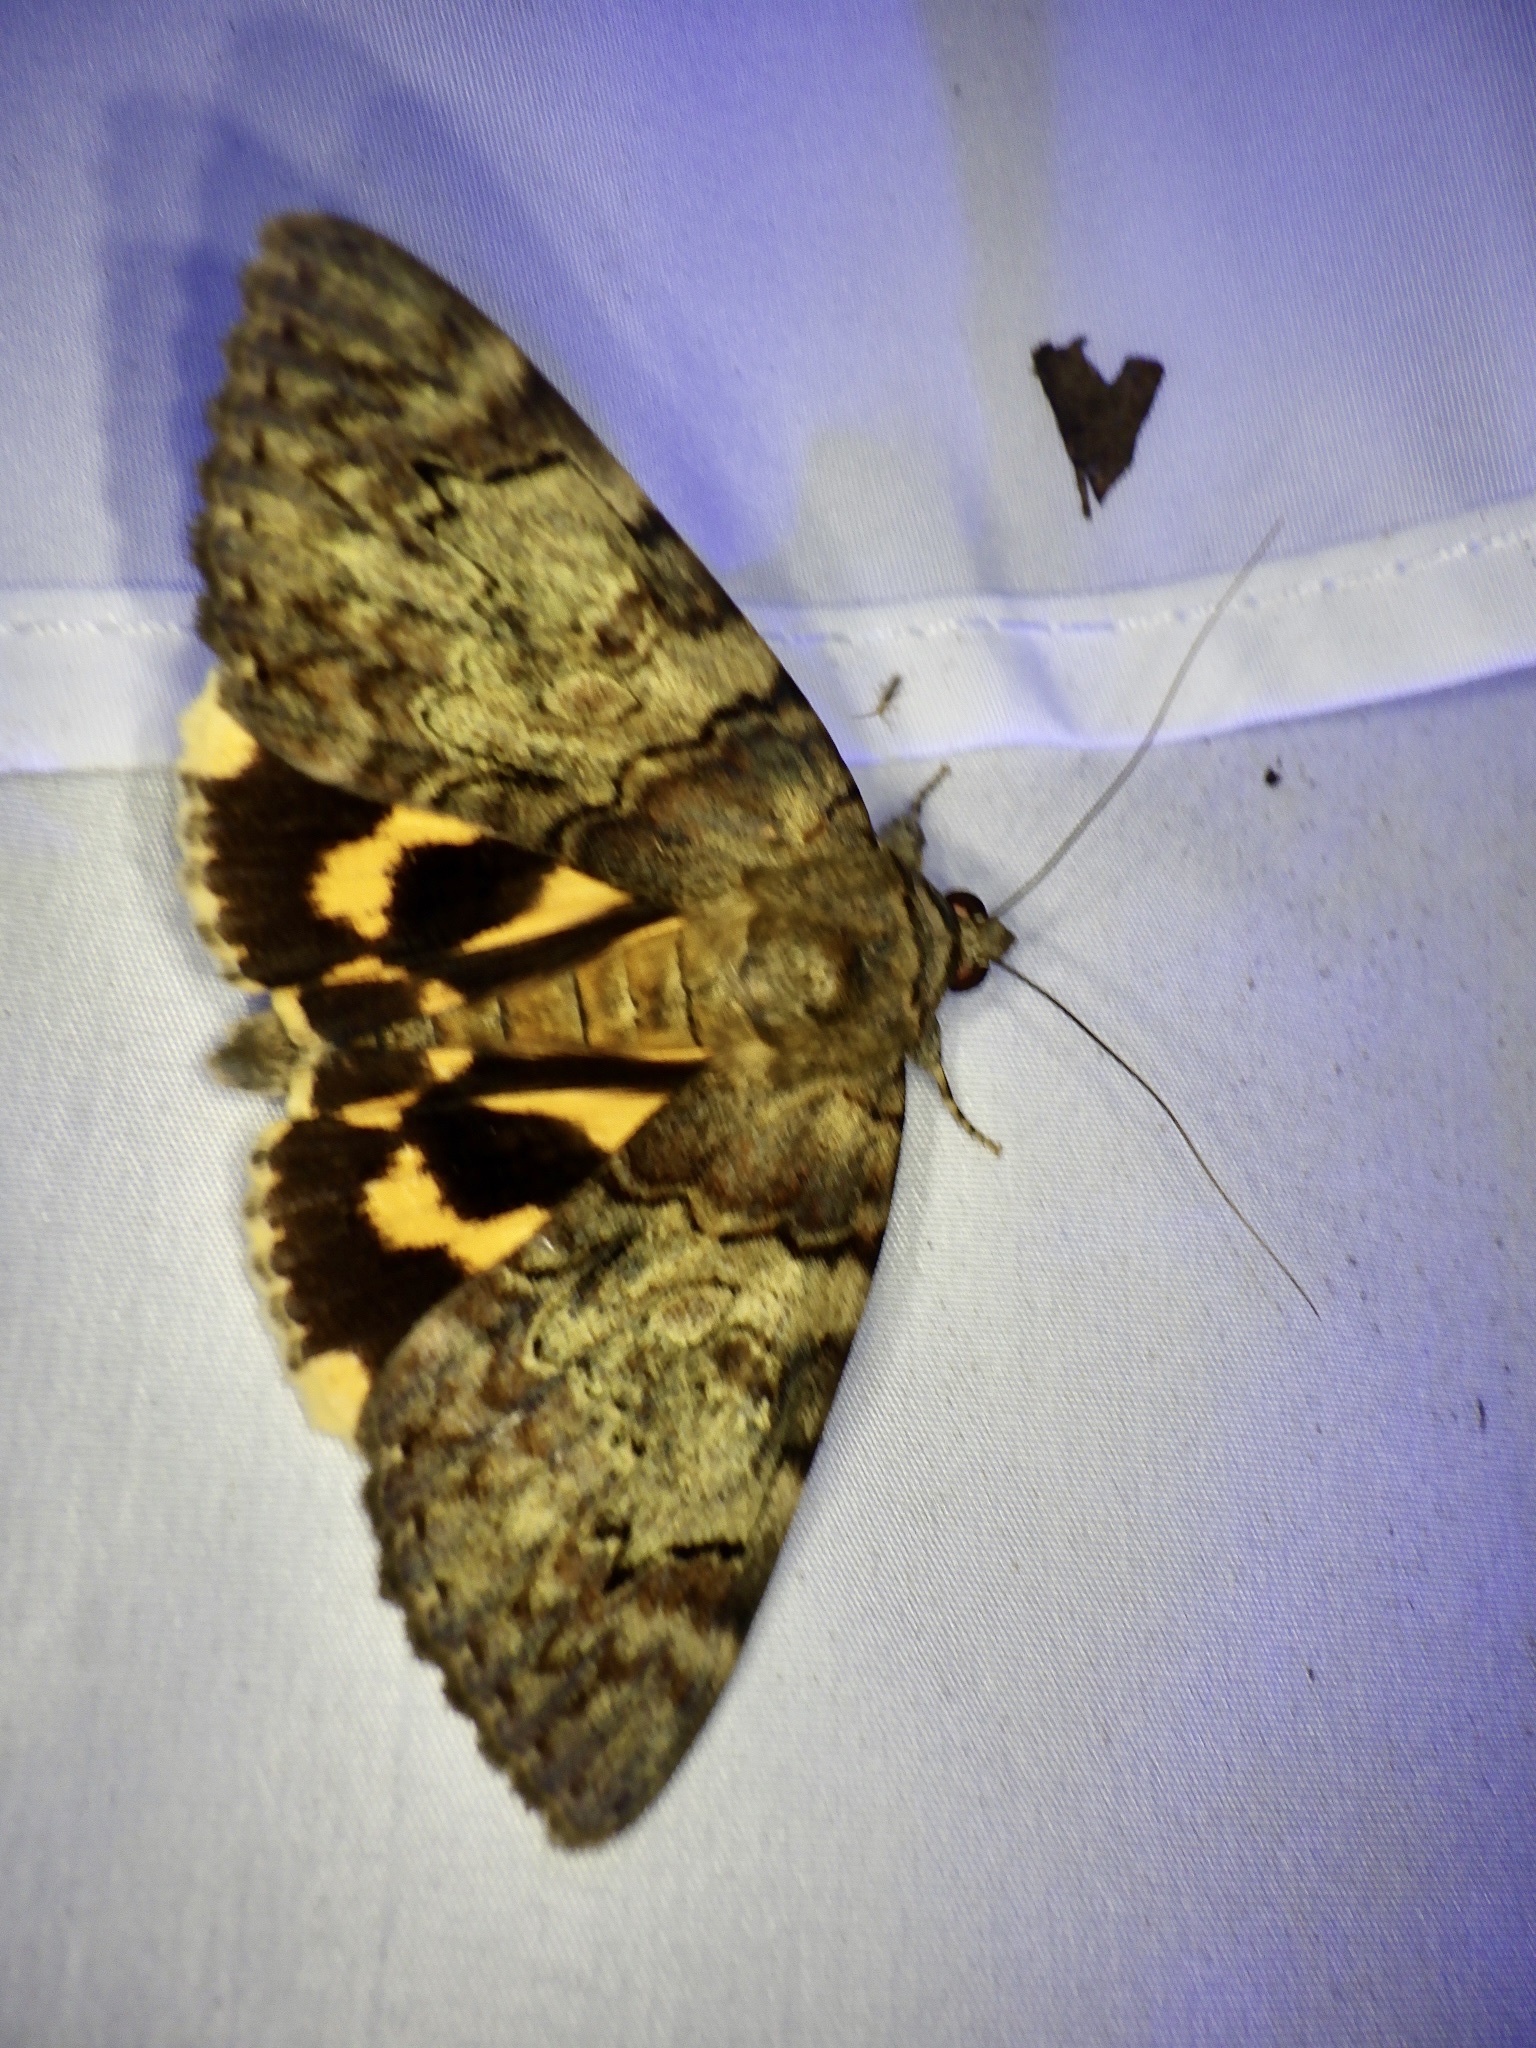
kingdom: Animalia
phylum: Arthropoda
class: Insecta
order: Lepidoptera
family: Erebidae
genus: Catocala
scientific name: Catocala patala
